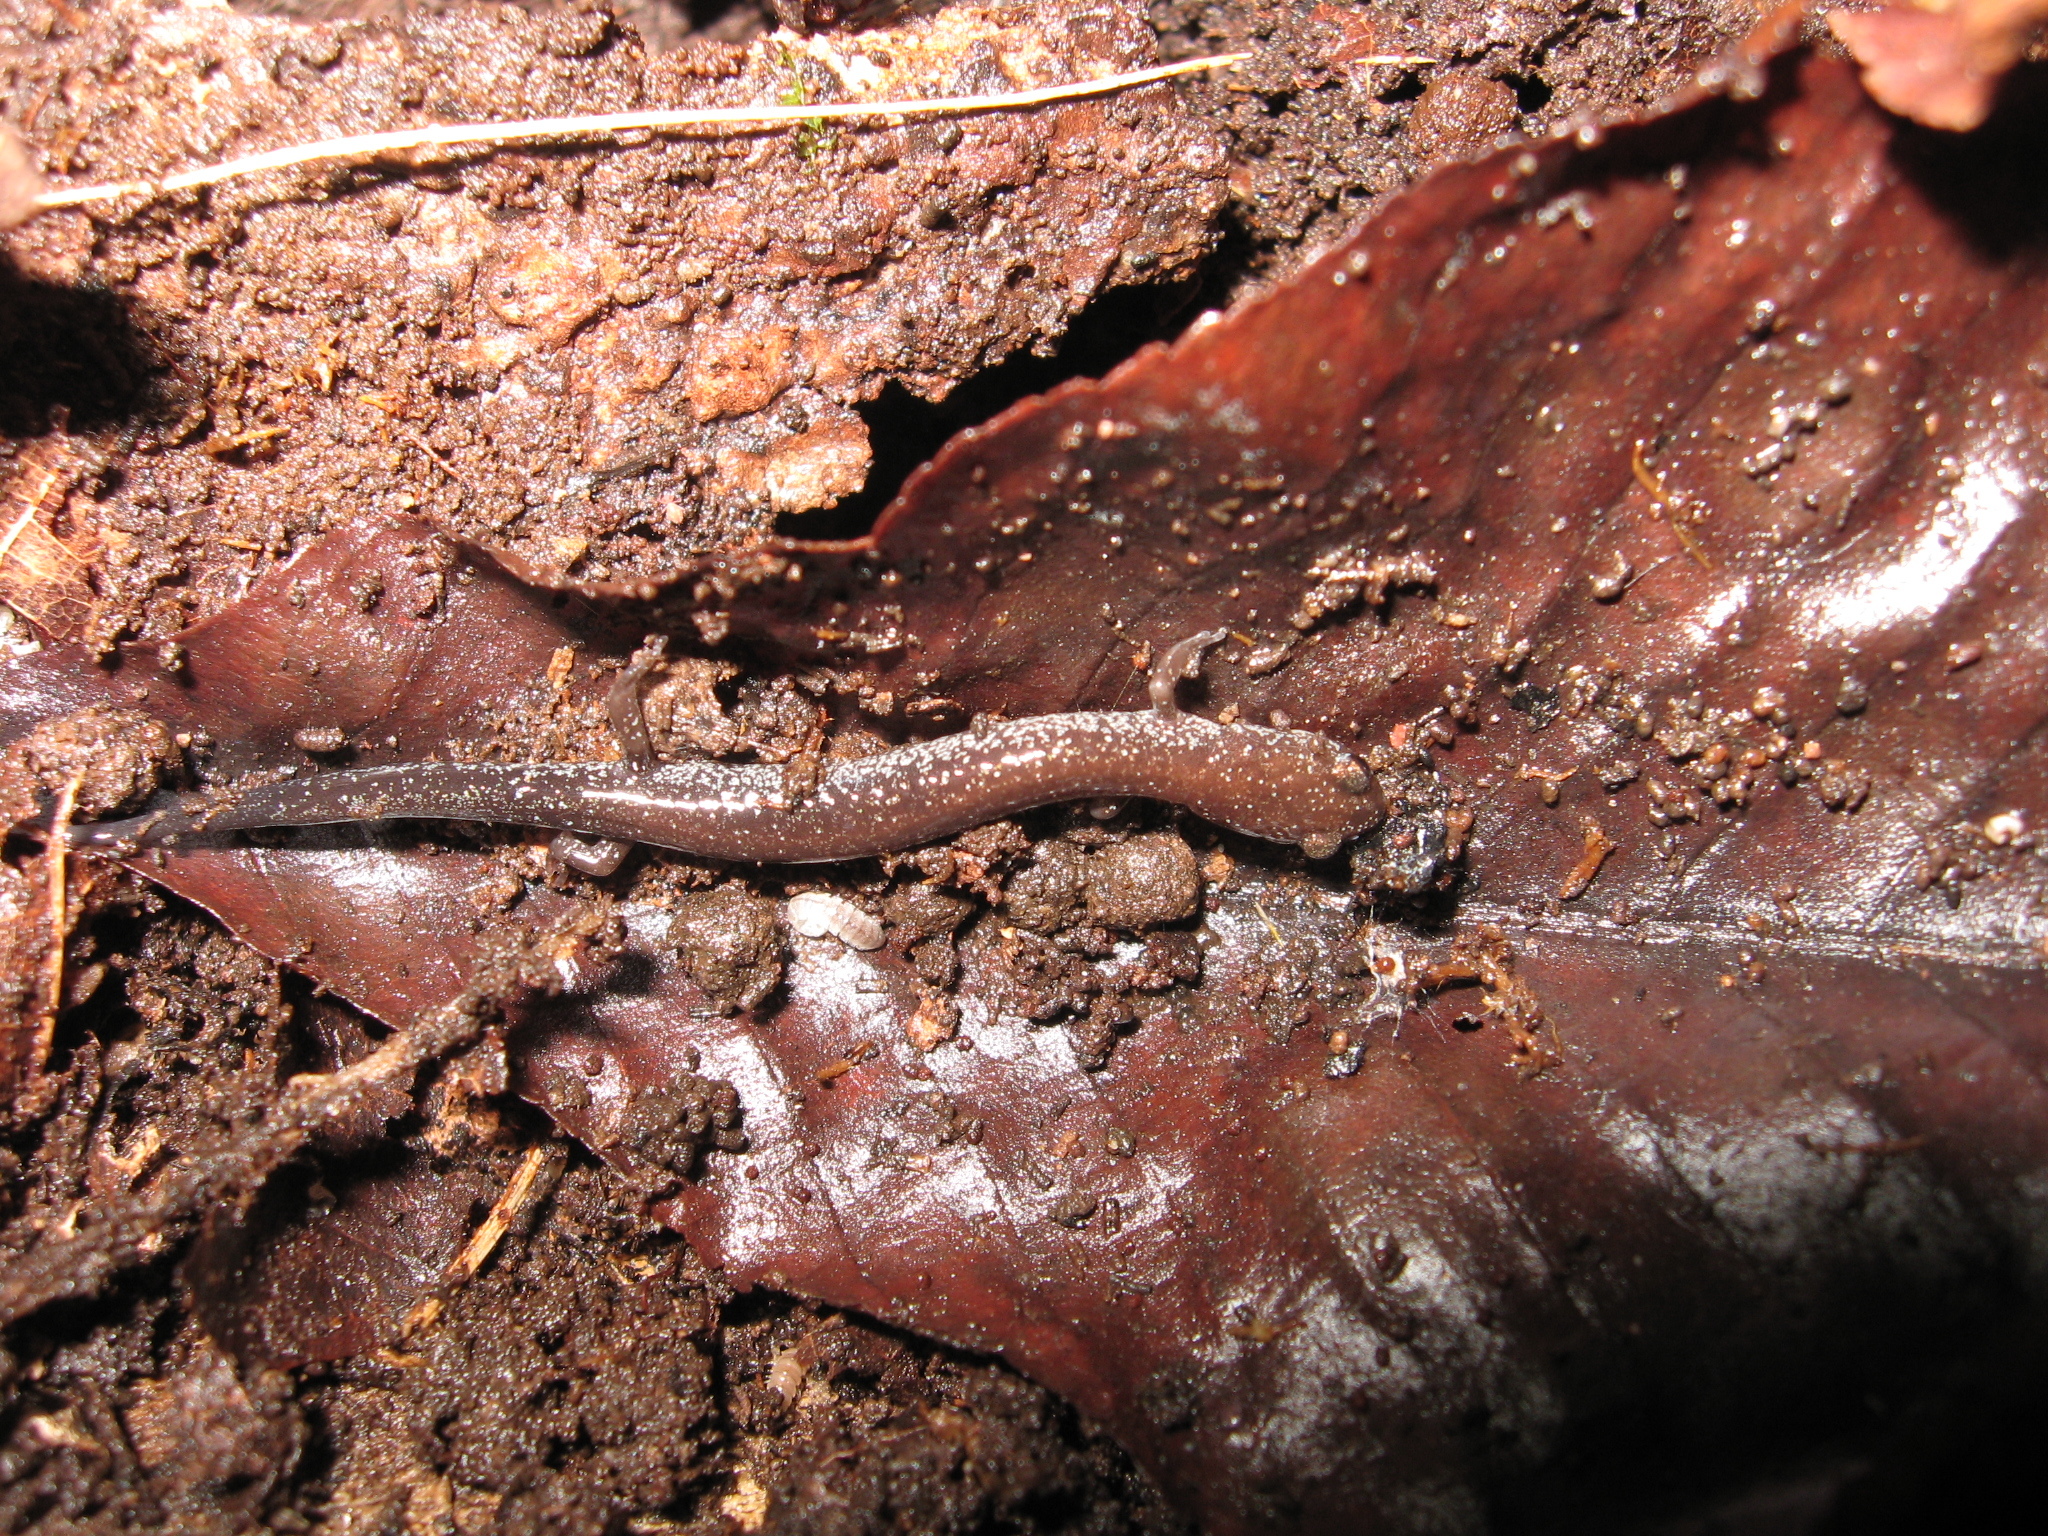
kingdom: Animalia
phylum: Chordata
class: Amphibia
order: Caudata
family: Plethodontidae
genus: Plethodon
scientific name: Plethodon cinereus
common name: Redback salamander
